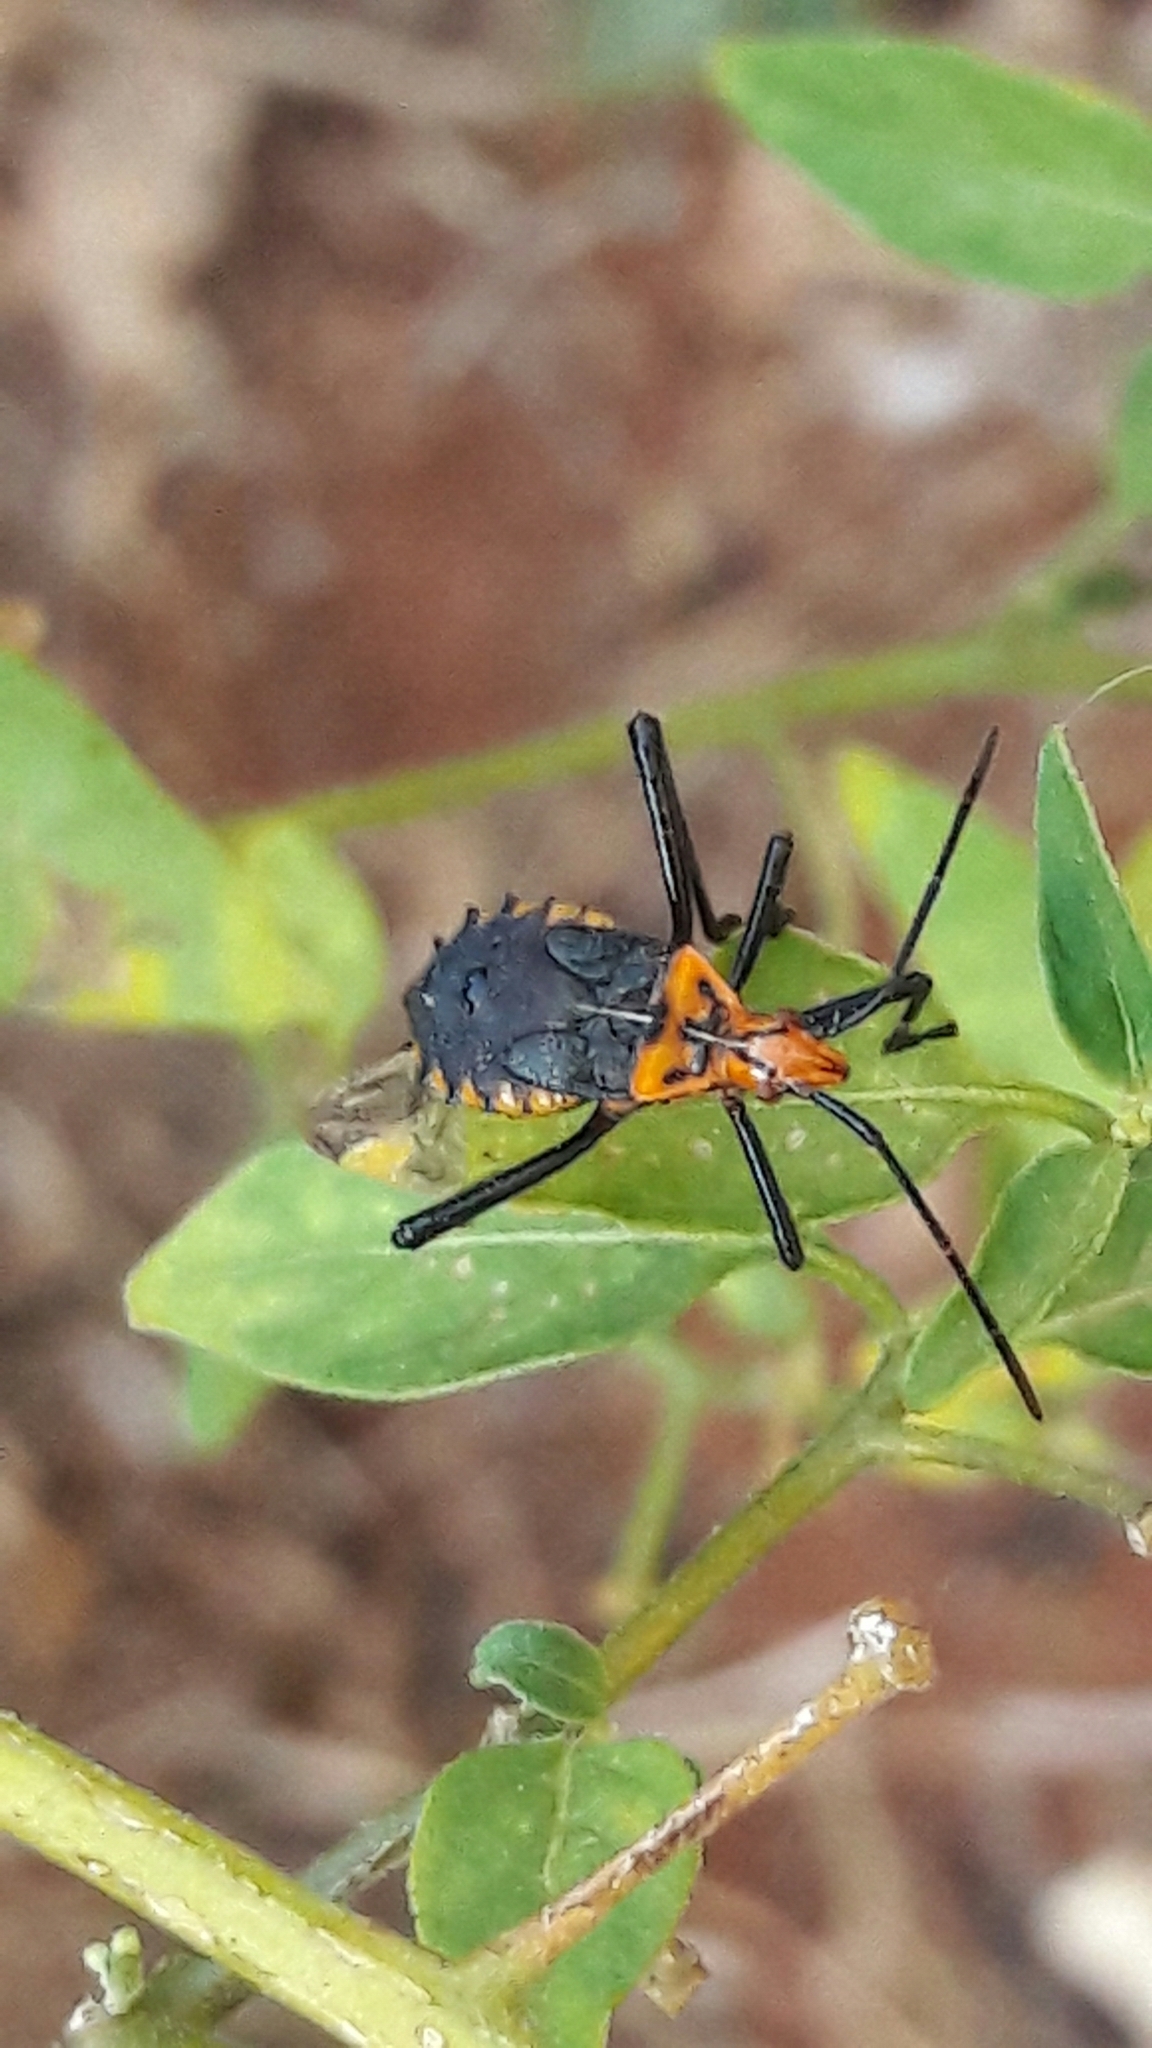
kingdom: Animalia
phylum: Arthropoda
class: Insecta
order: Hemiptera
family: Coreidae
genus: Phthiacnemia
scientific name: Phthiacnemia picta
